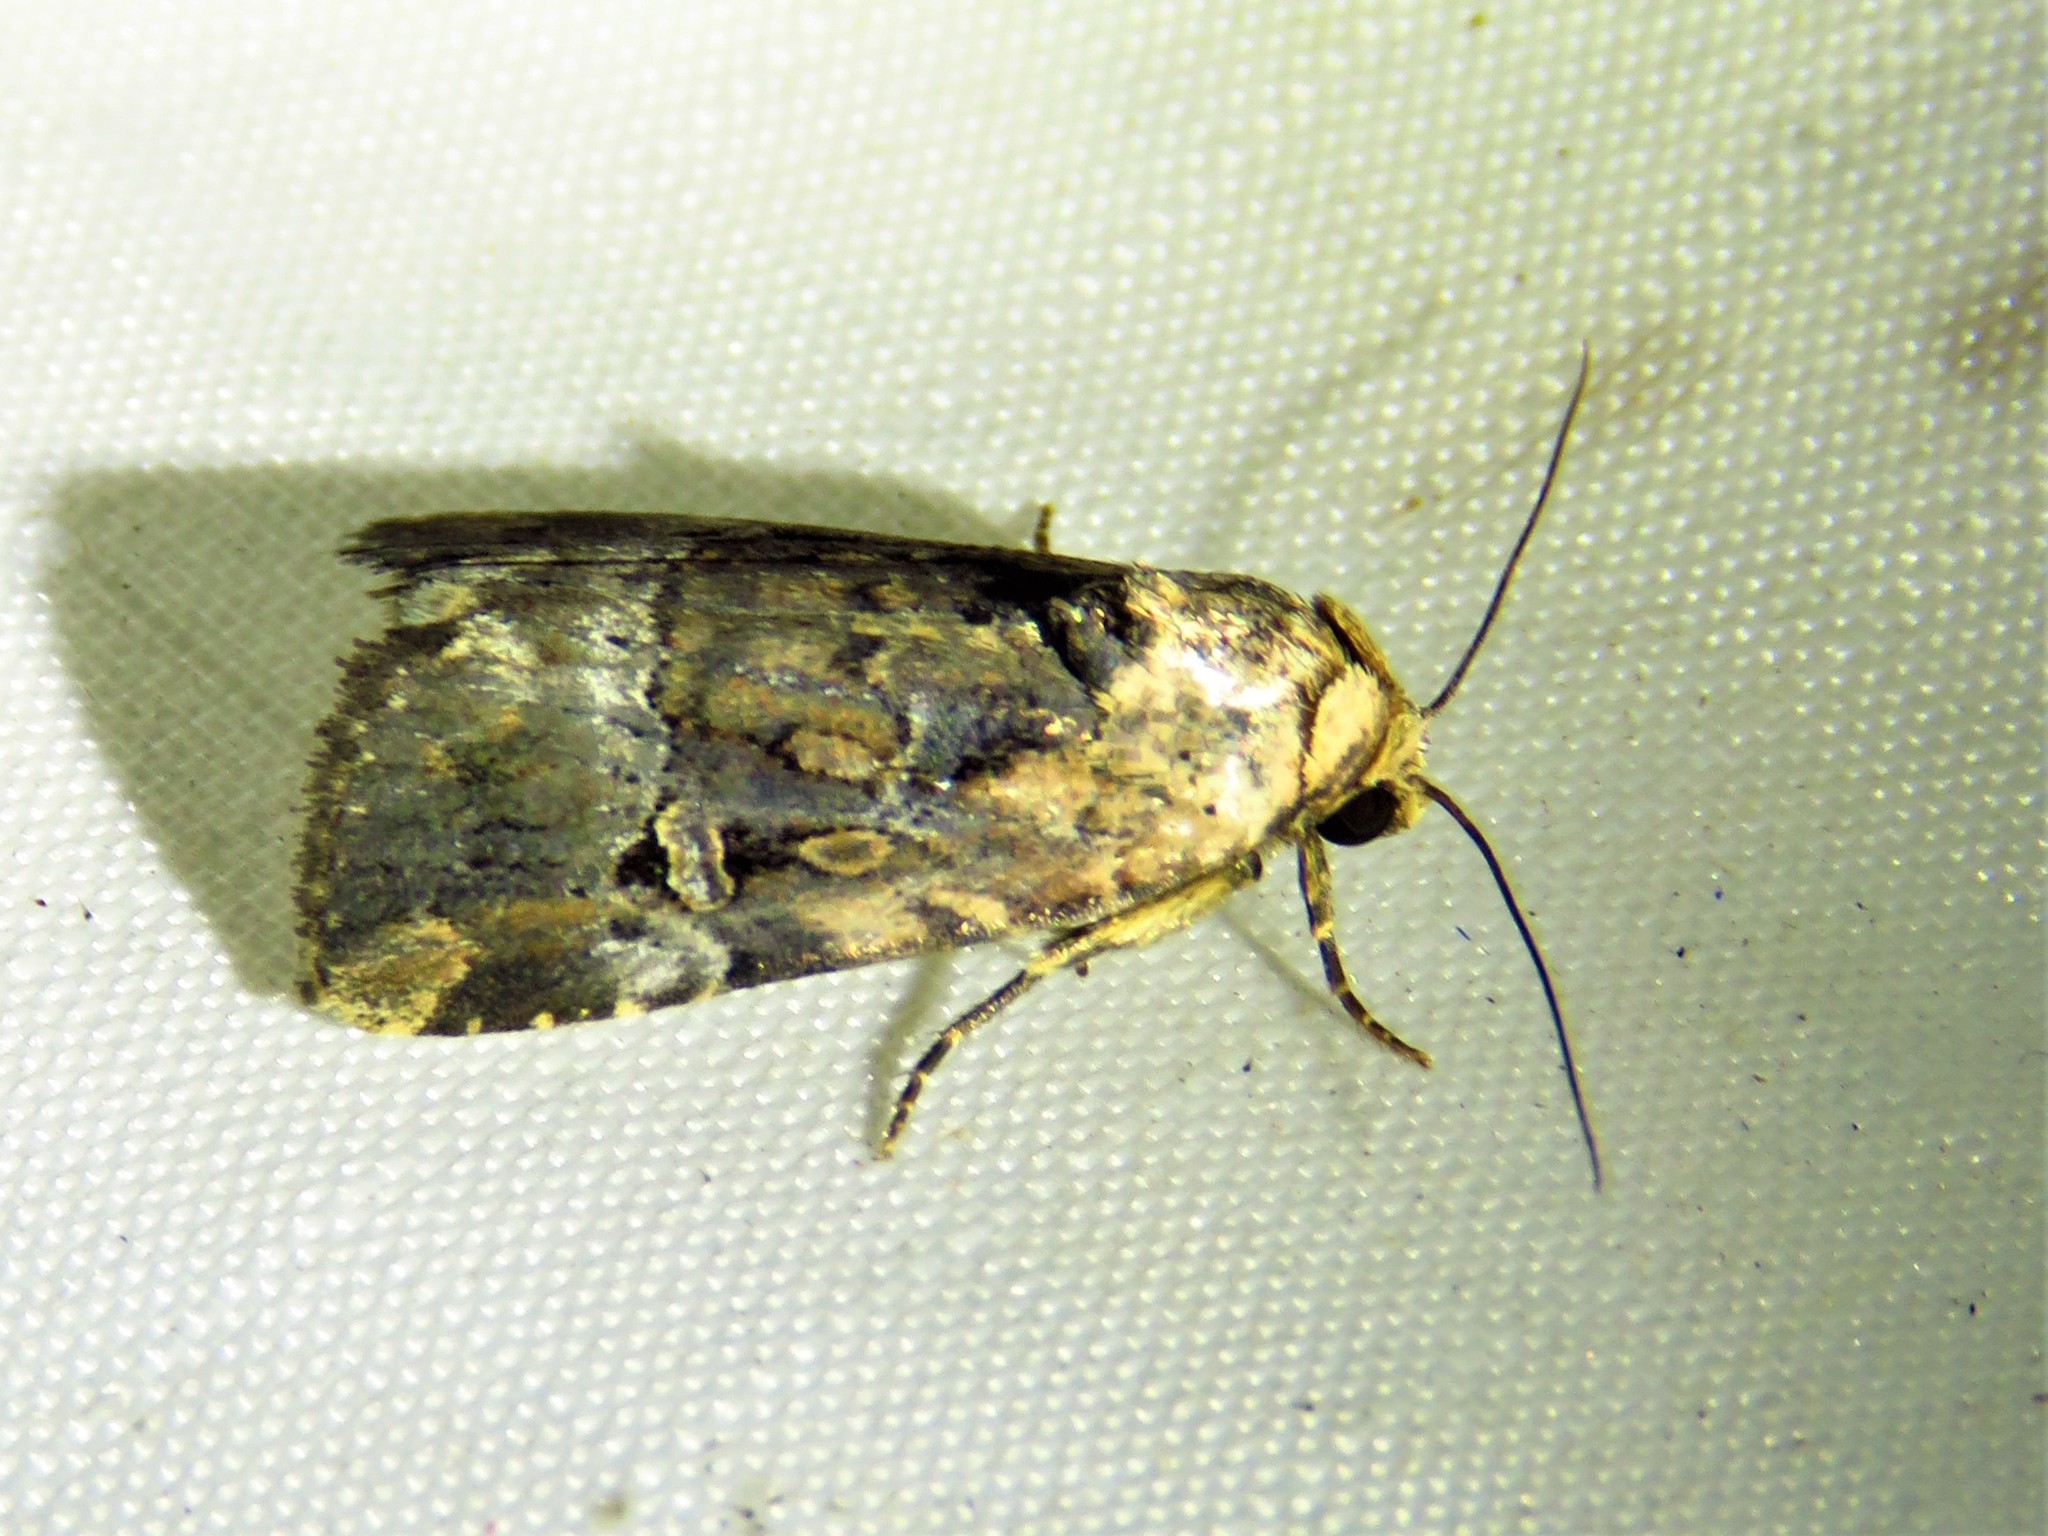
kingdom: Animalia
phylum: Arthropoda
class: Insecta
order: Lepidoptera
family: Noctuidae
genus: Elaphria
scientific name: Elaphria chalcedonia
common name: Chalcedony midget
